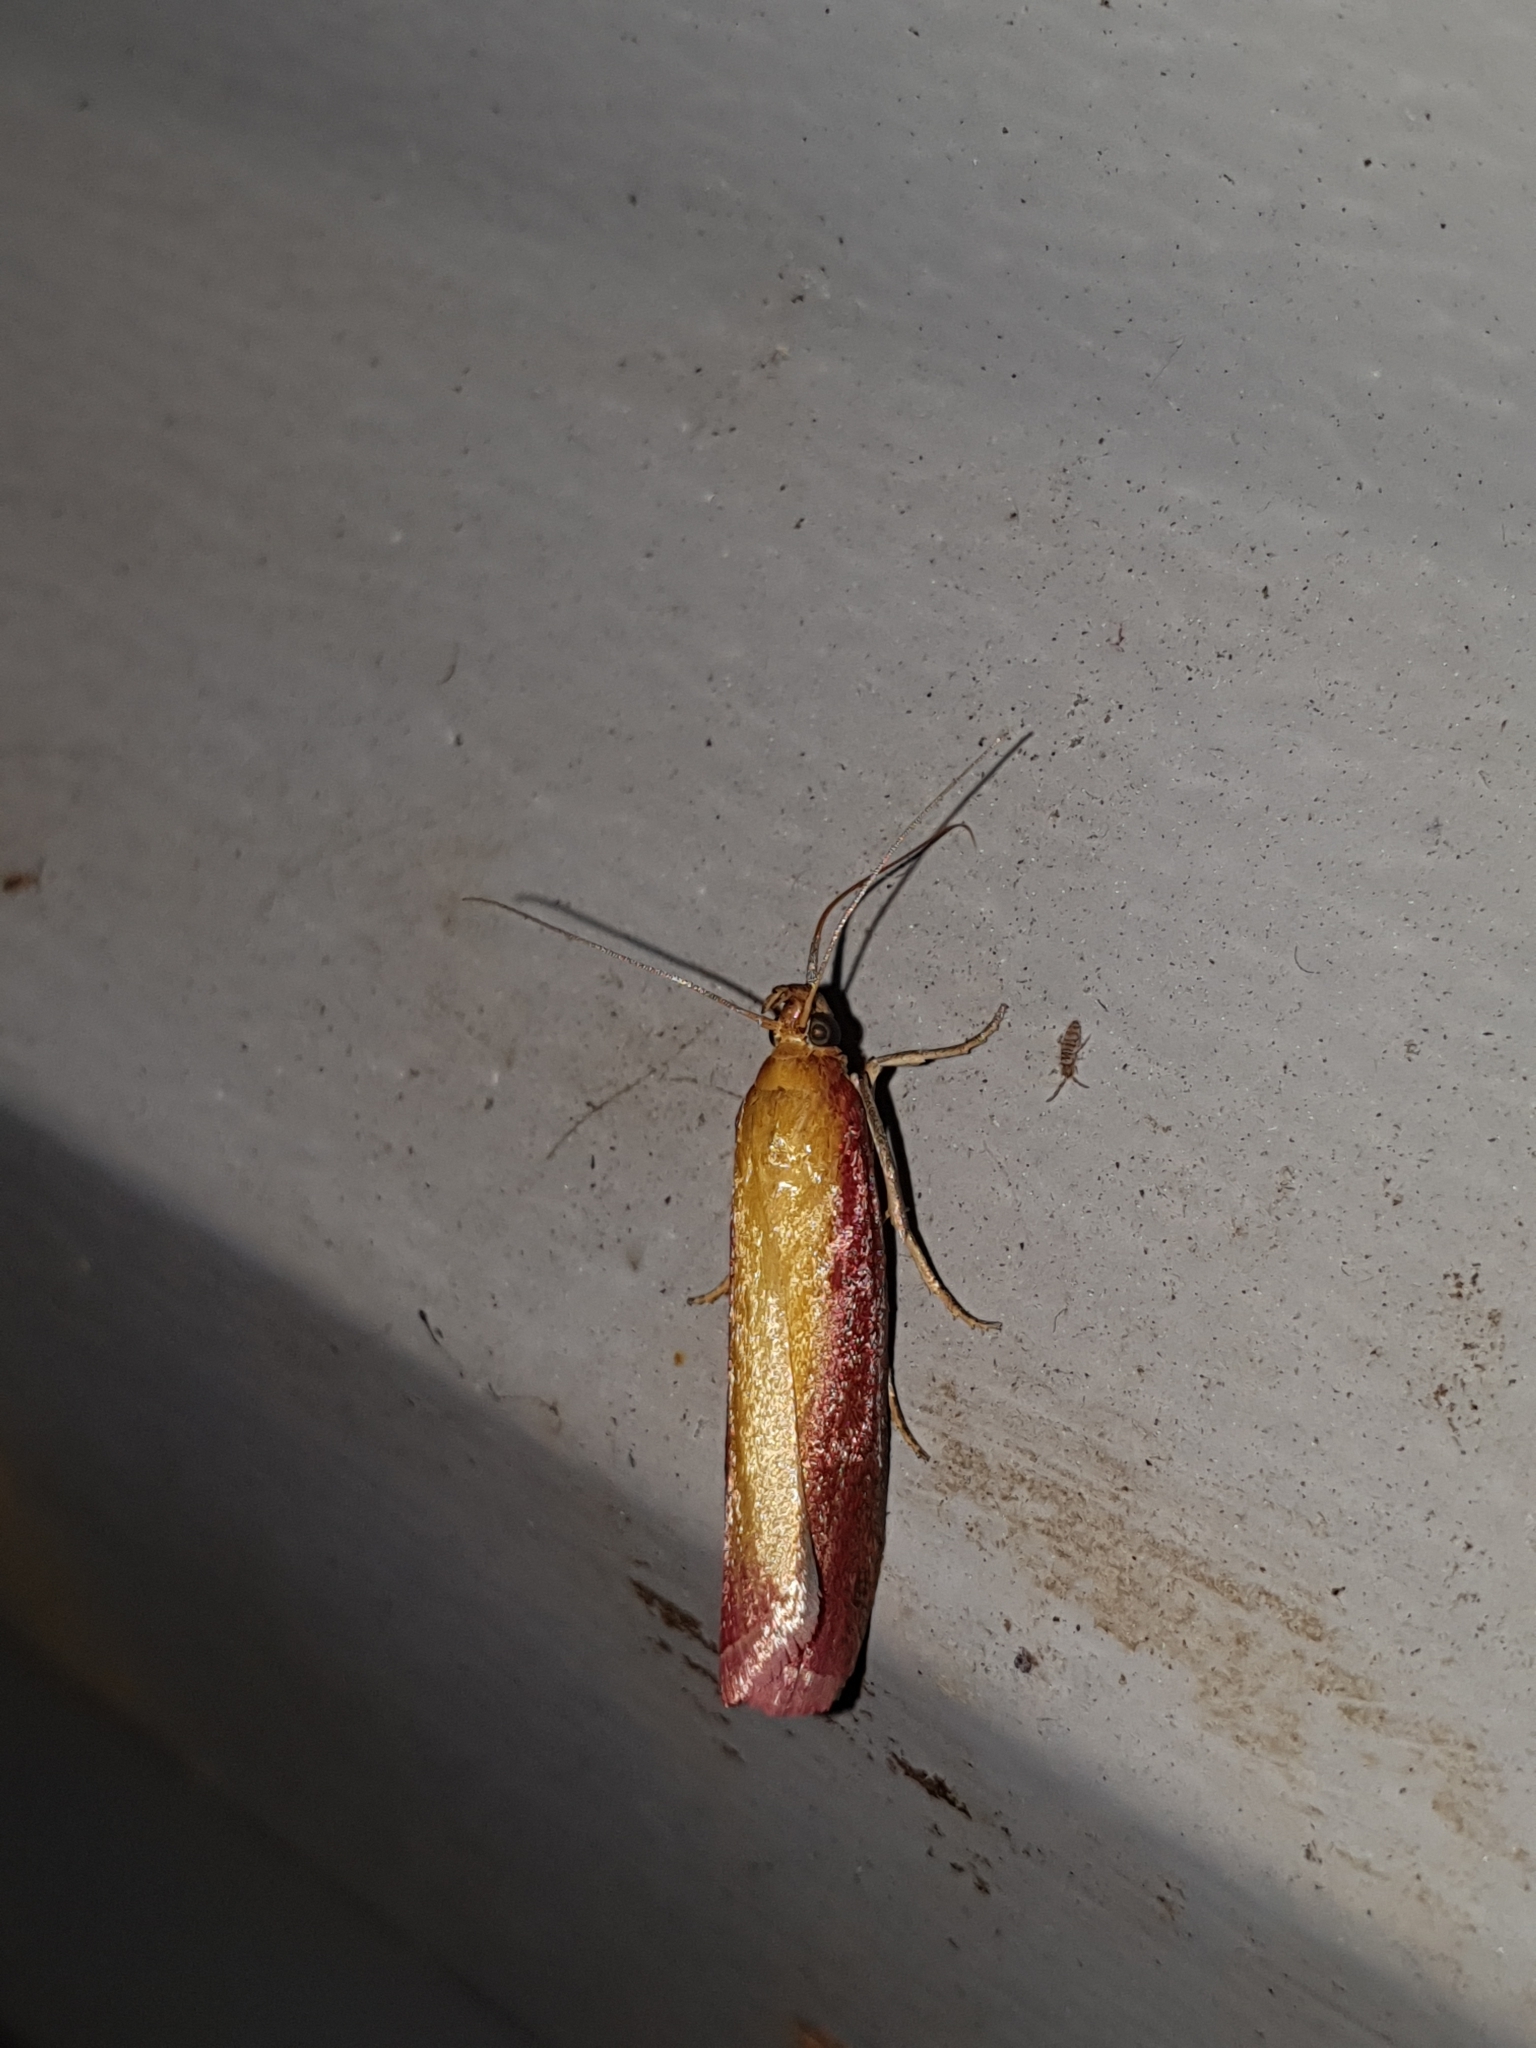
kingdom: Animalia
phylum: Arthropoda
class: Insecta
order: Lepidoptera
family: Pyralidae
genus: Oncocera
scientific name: Oncocera semirubella
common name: Rosy-striped knot-horn
